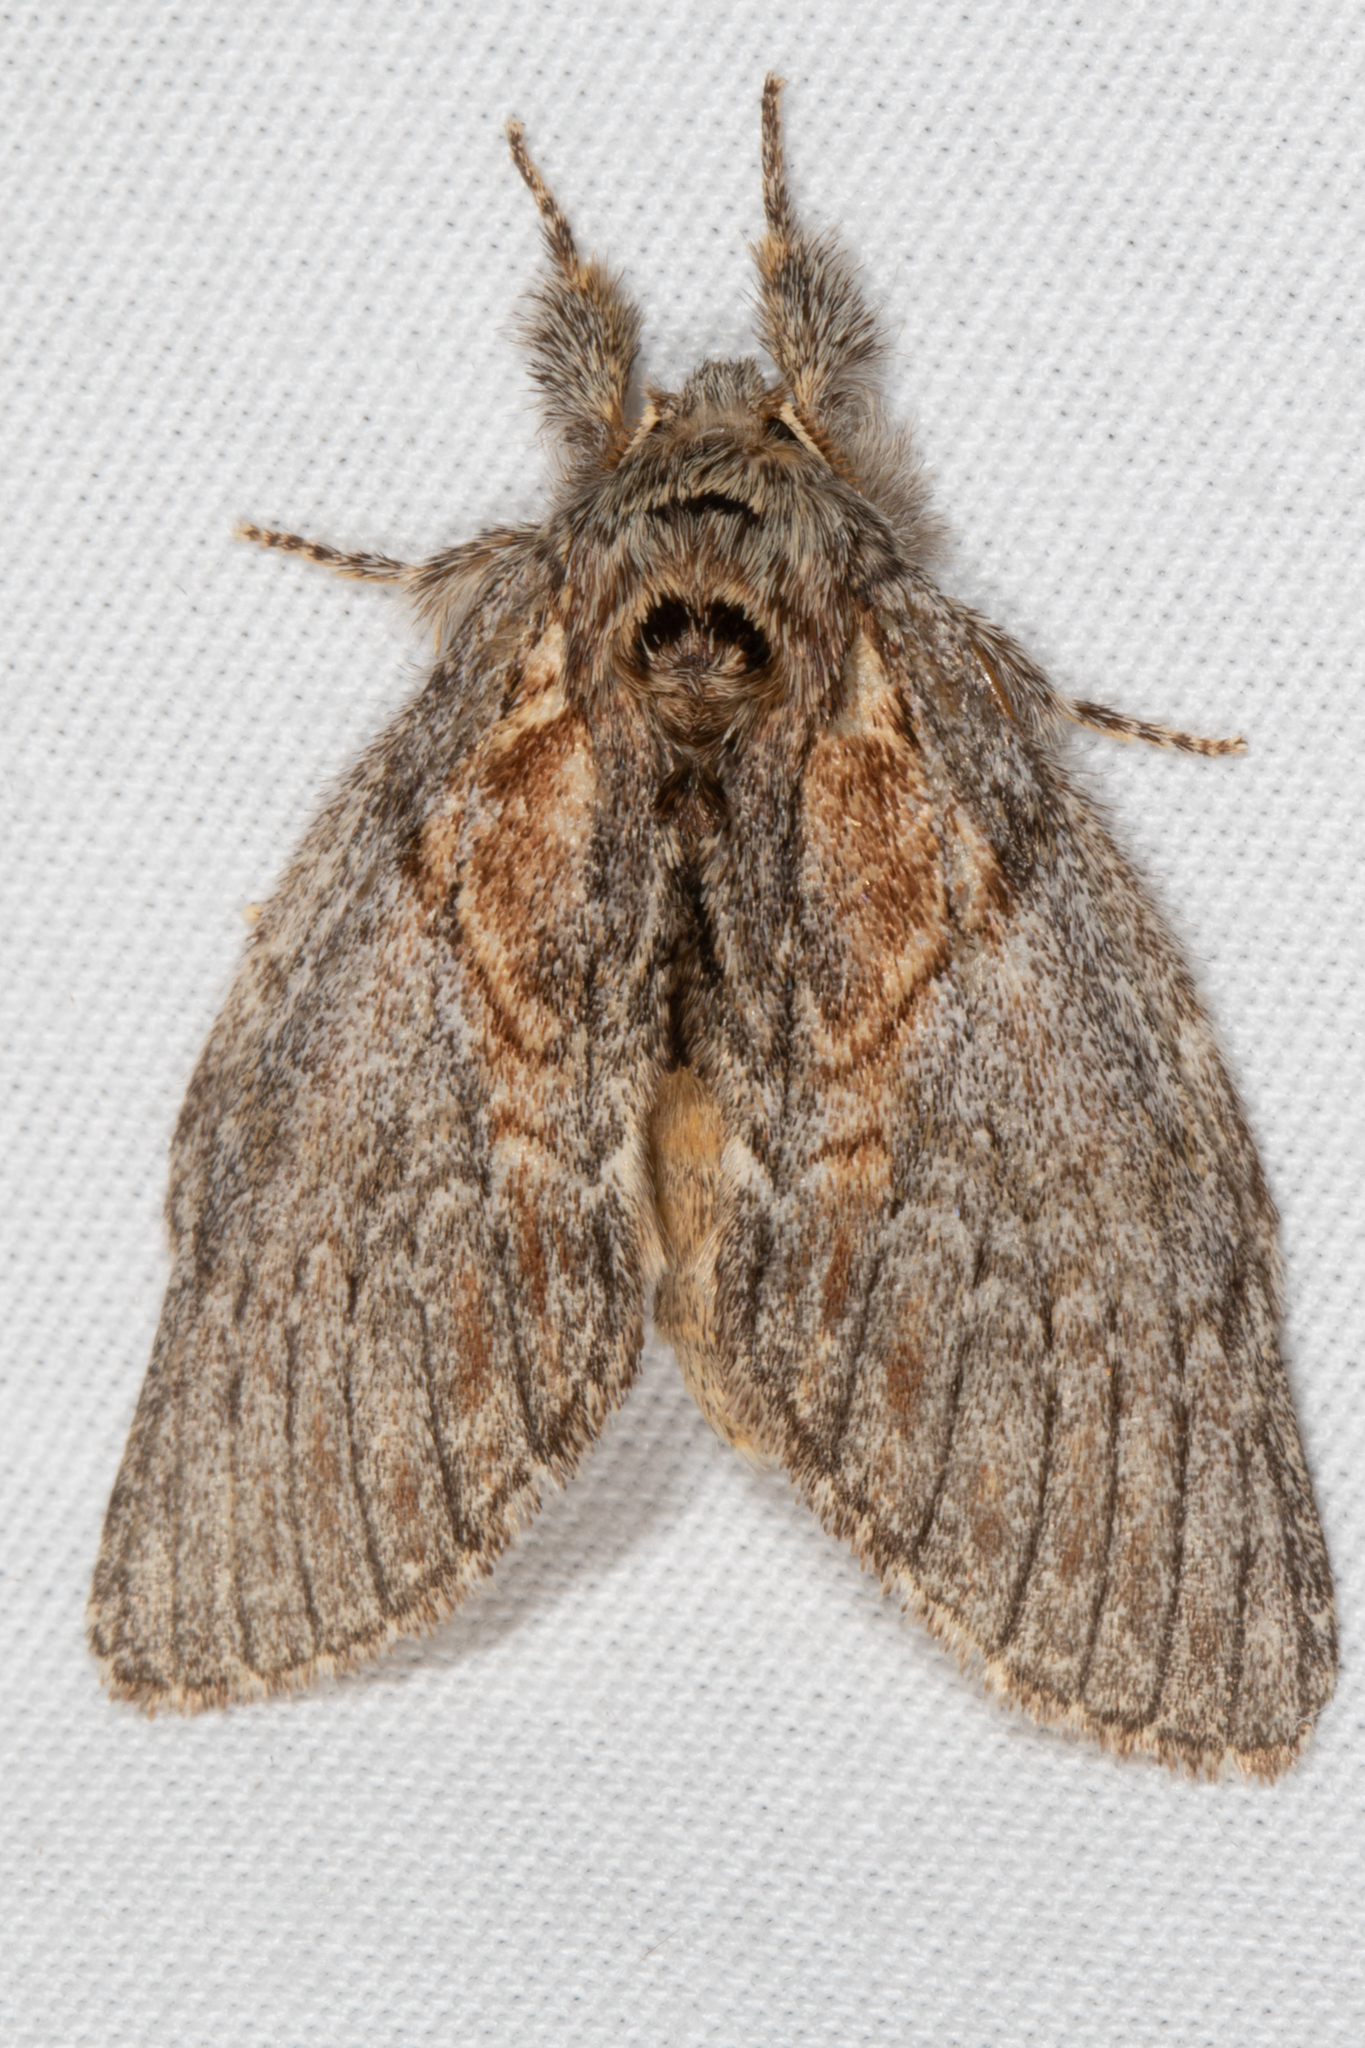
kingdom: Animalia
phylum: Arthropoda
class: Insecta
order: Lepidoptera
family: Notodontidae
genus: Peridea
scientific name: Peridea basitriens
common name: Oval-based prominent
